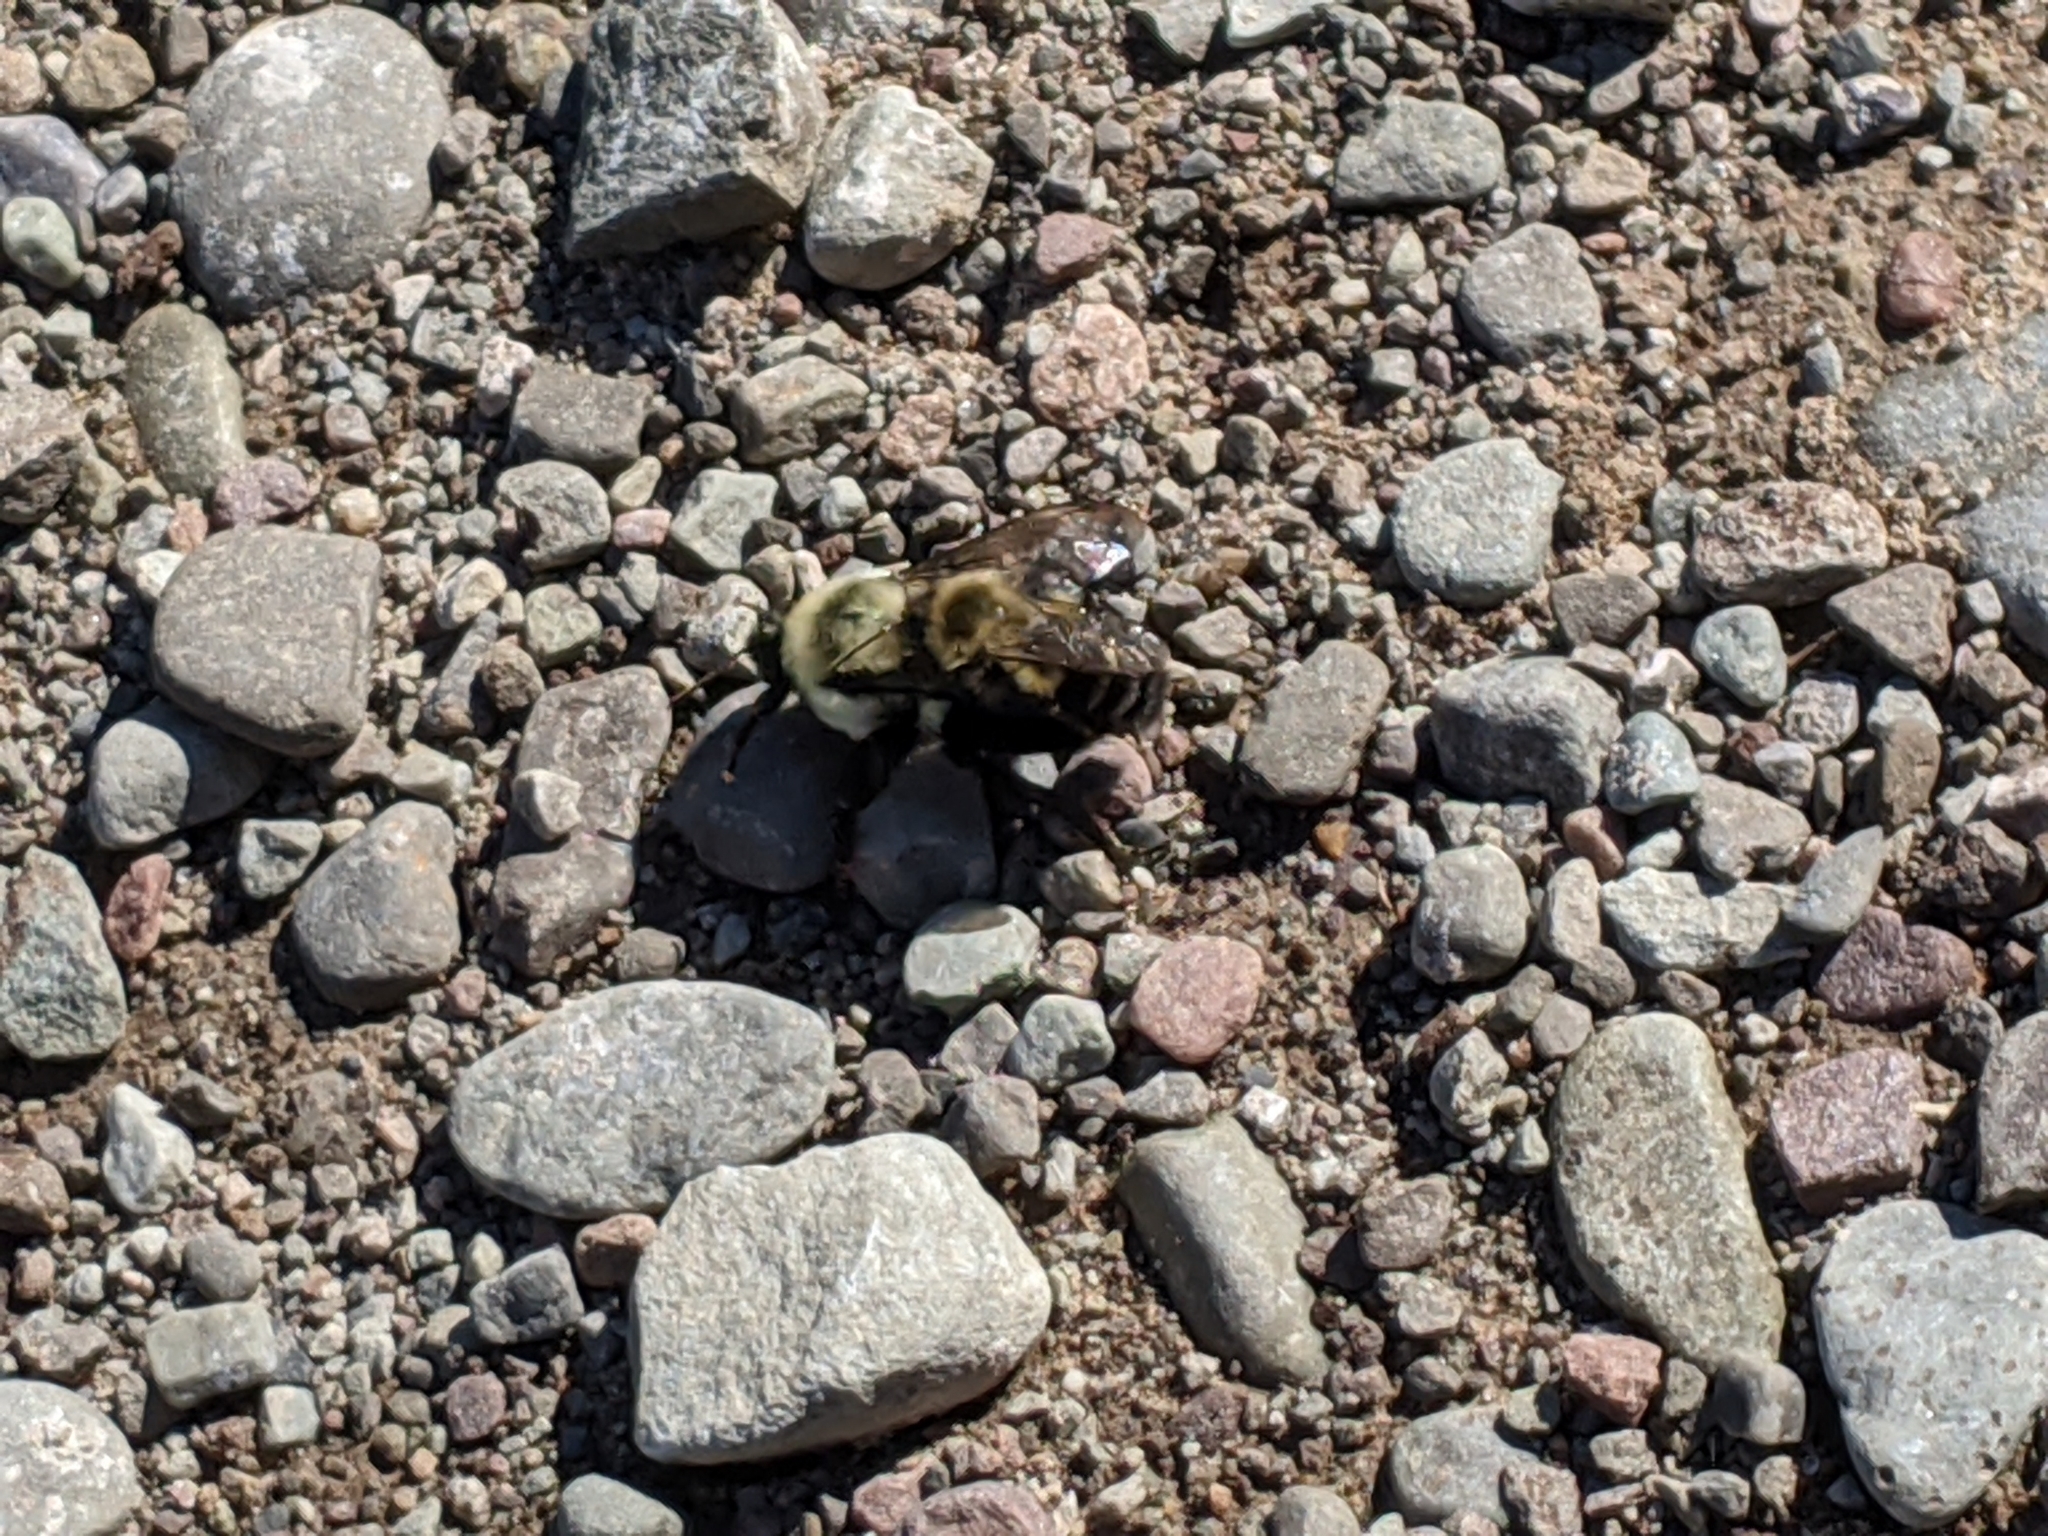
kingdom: Animalia
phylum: Arthropoda
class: Insecta
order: Hymenoptera
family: Apidae
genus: Bombus
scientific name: Bombus impatiens
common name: Common eastern bumble bee
